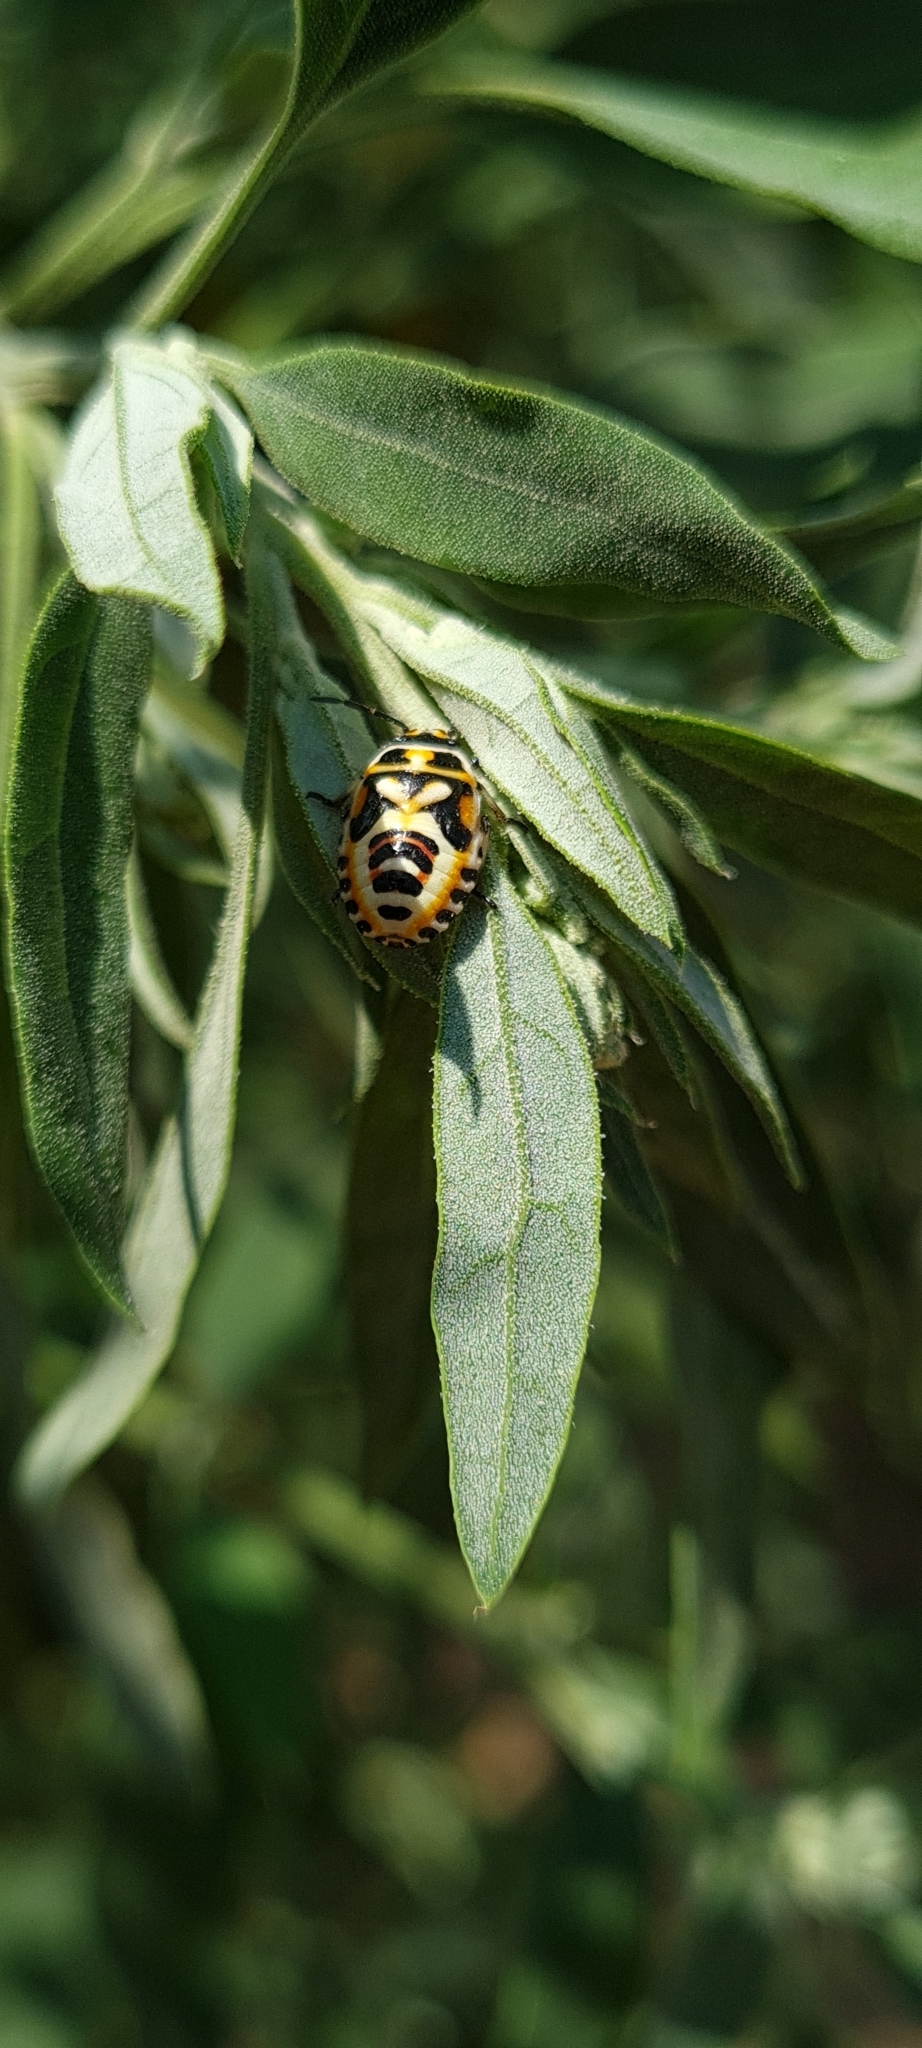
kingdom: Animalia
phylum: Arthropoda
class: Insecta
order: Hemiptera
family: Pentatomidae
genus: Eurydema
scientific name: Eurydema ornata
